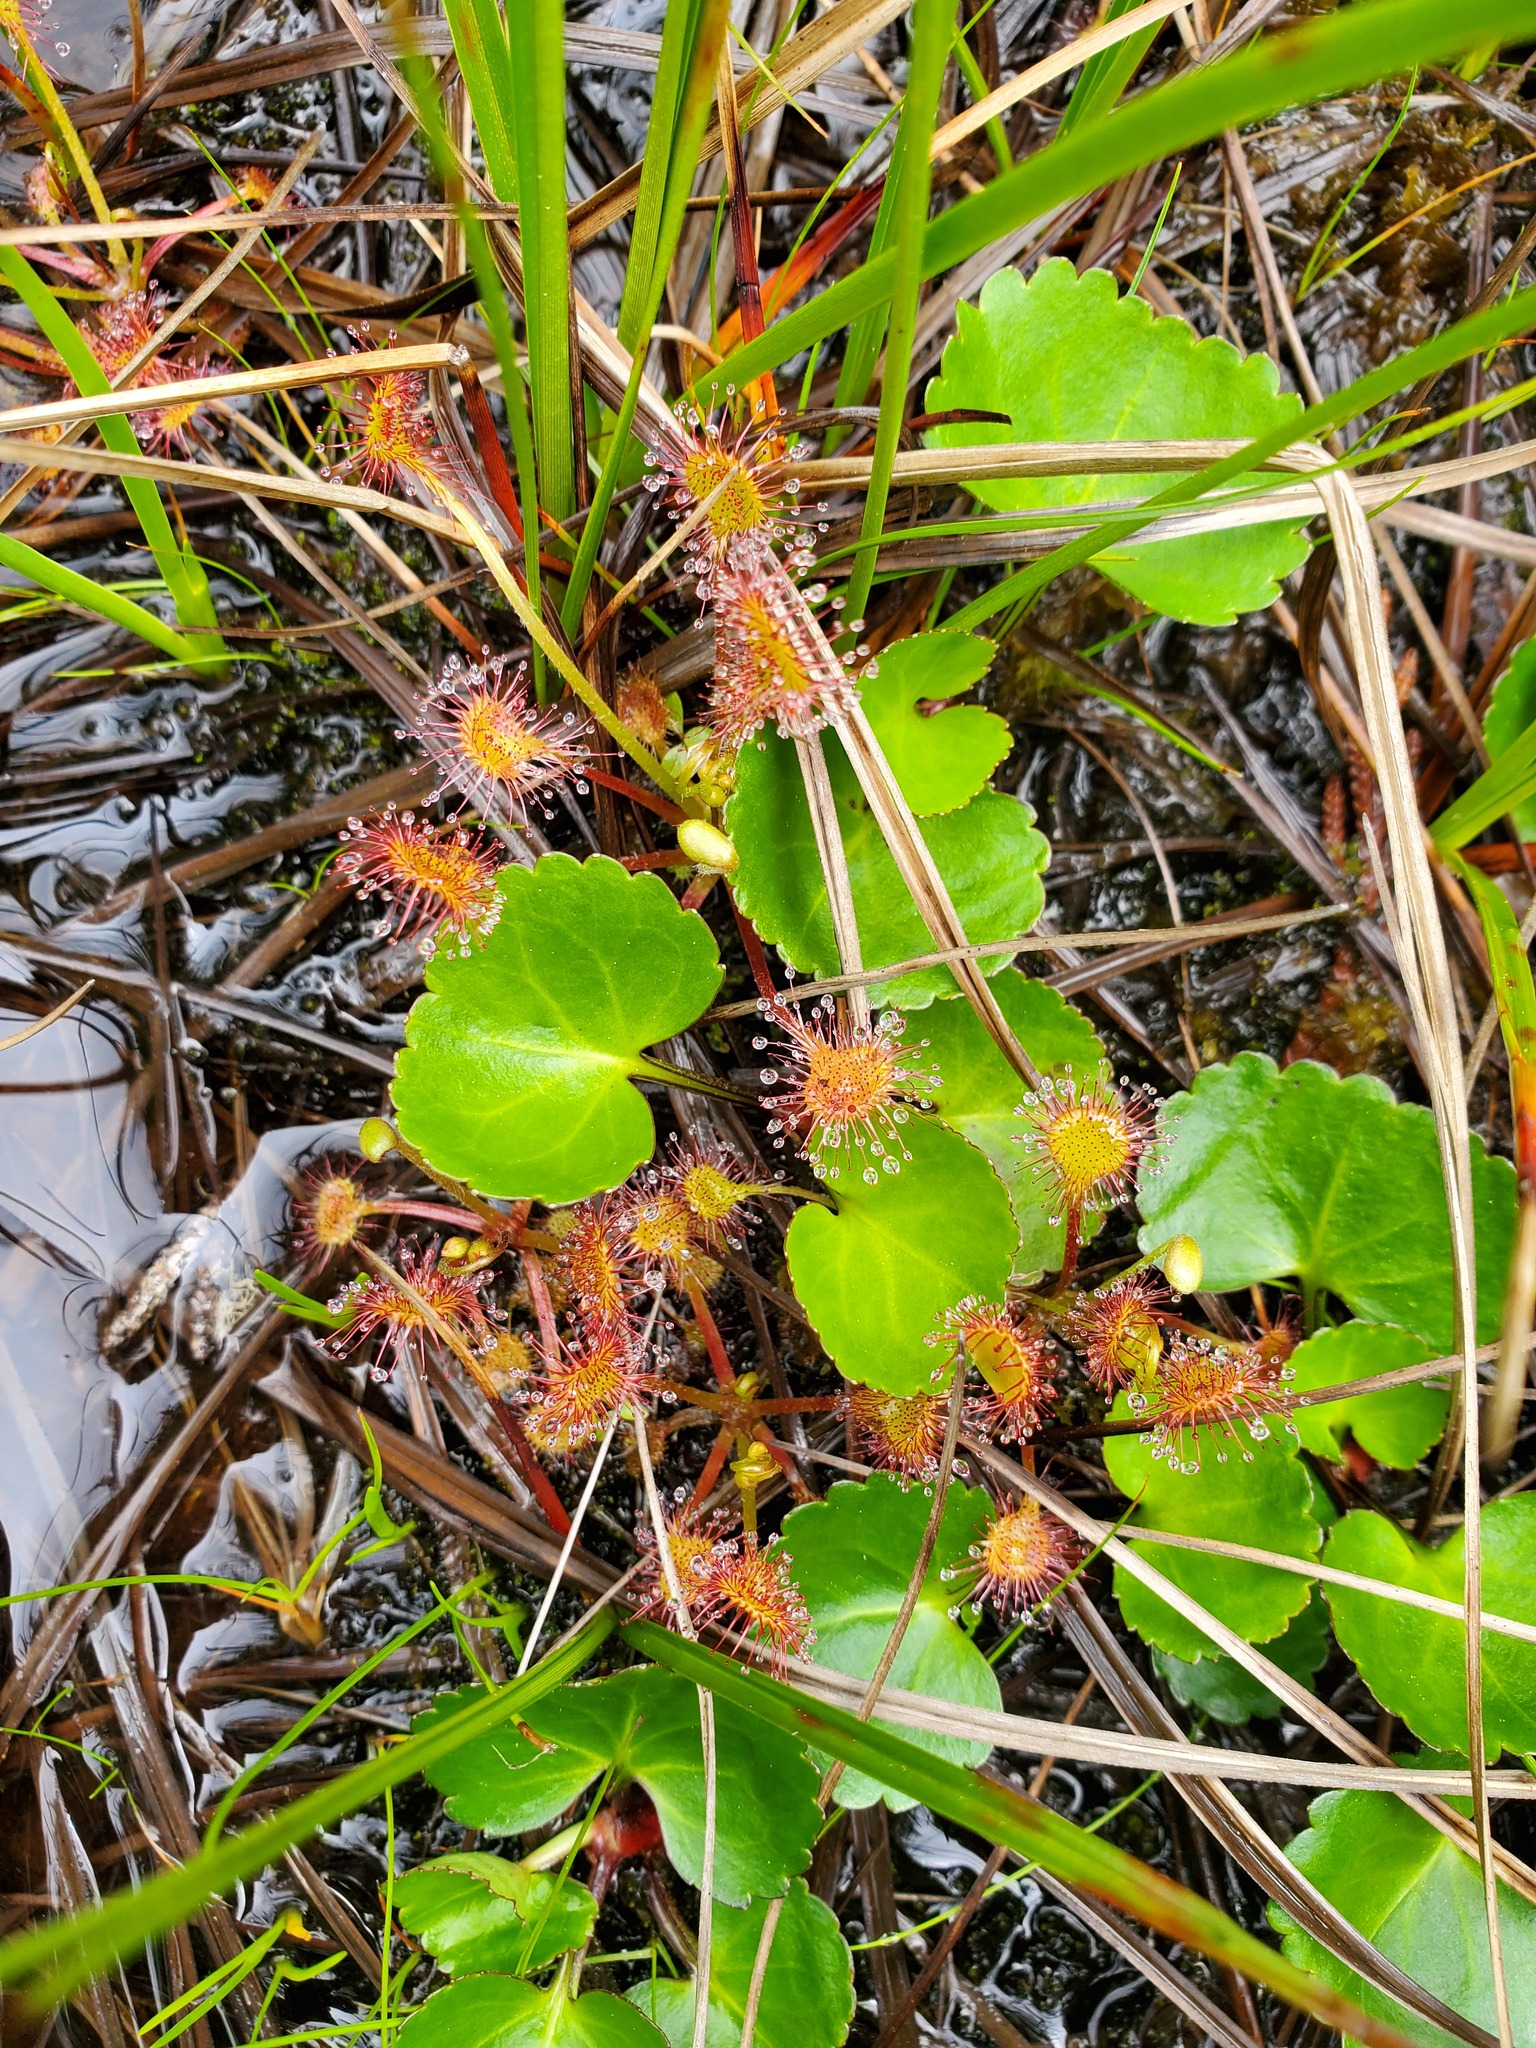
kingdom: Plantae
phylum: Tracheophyta
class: Magnoliopsida
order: Caryophyllales
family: Droseraceae
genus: Drosera
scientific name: Drosera rotundifolia
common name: Round-leaved sundew
